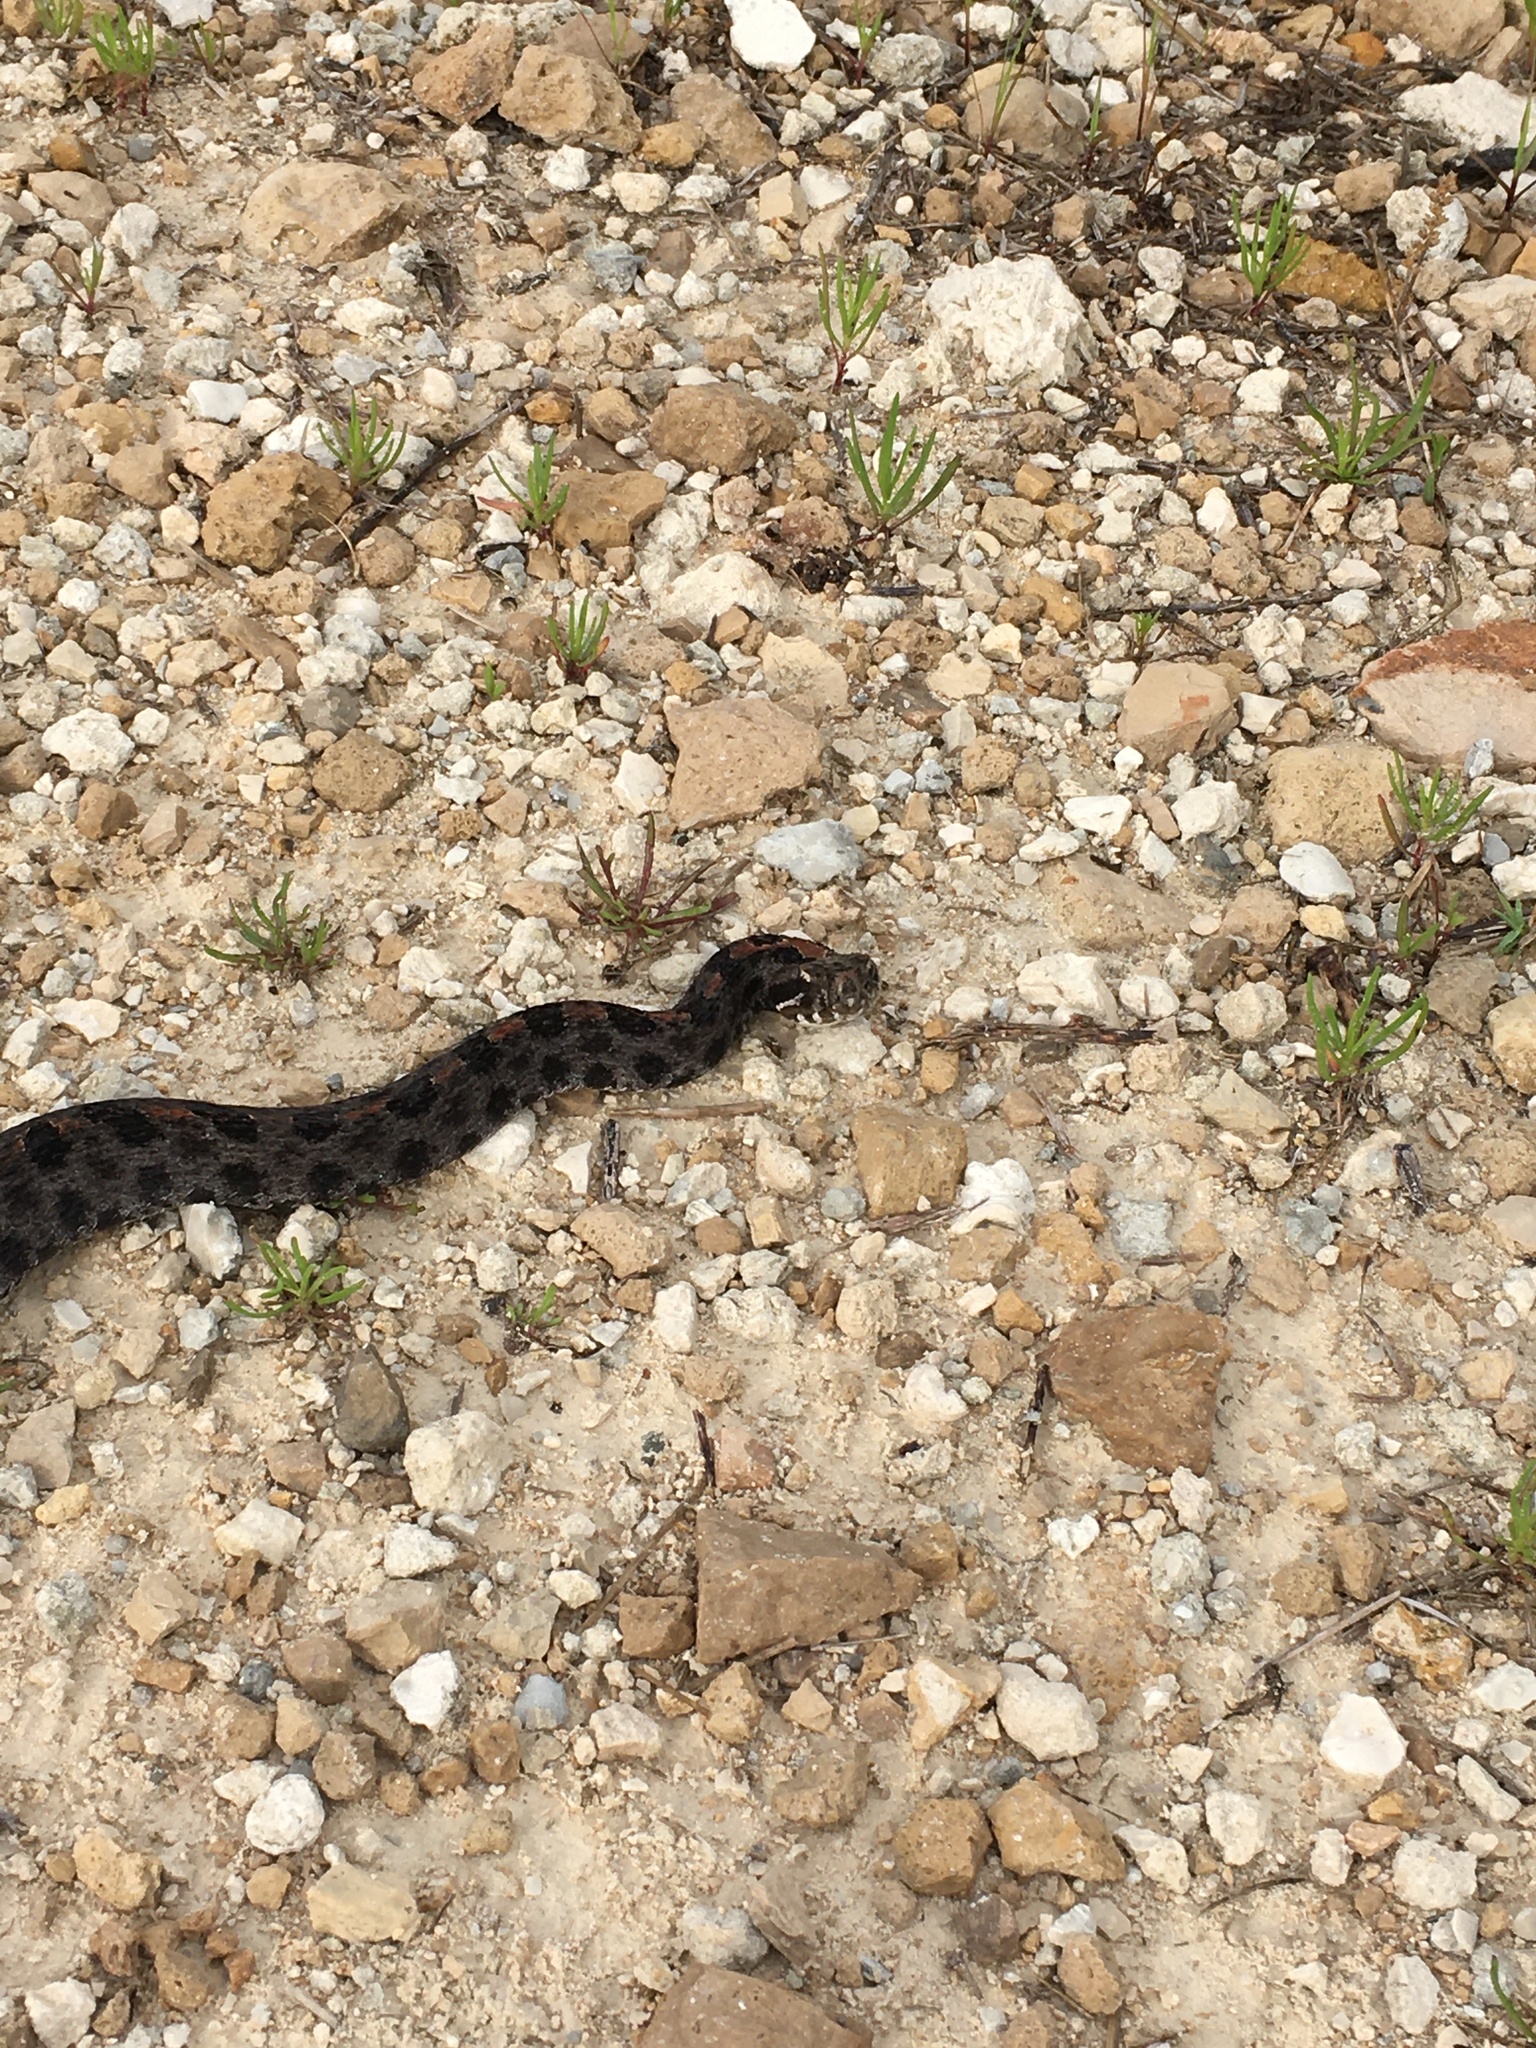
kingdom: Animalia
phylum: Chordata
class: Squamata
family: Viperidae
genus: Sistrurus
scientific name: Sistrurus miliarius
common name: Pygmy rattlesnake
